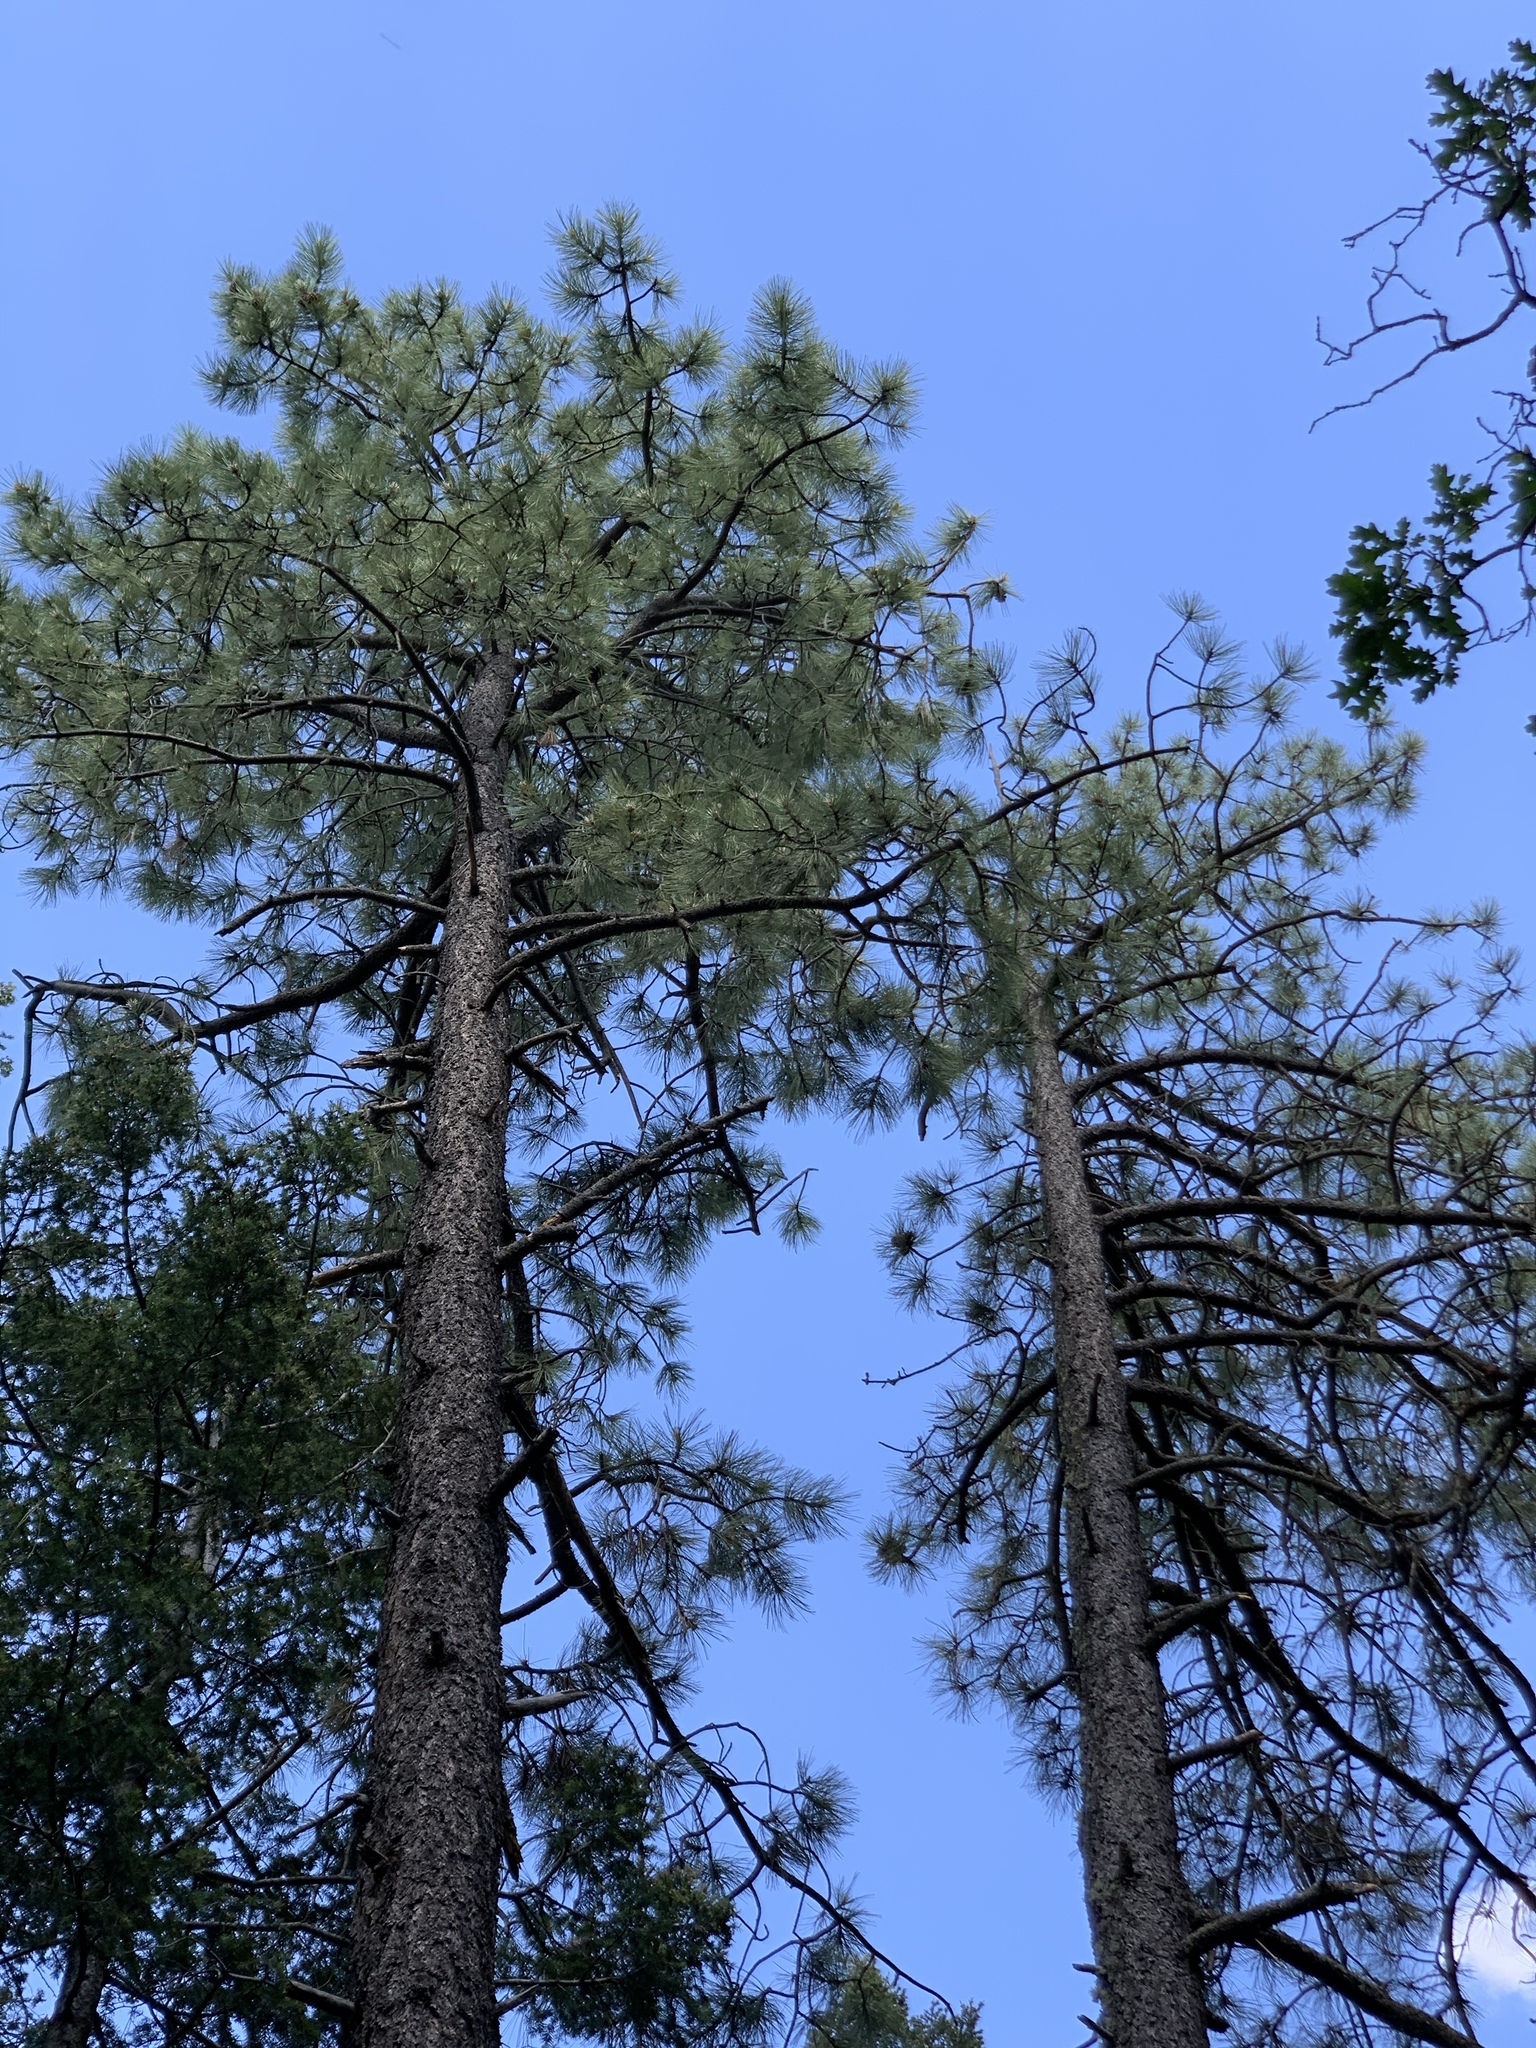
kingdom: Plantae
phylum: Tracheophyta
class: Pinopsida
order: Pinales
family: Pinaceae
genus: Pinus
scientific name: Pinus ponderosa
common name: Western yellow-pine
